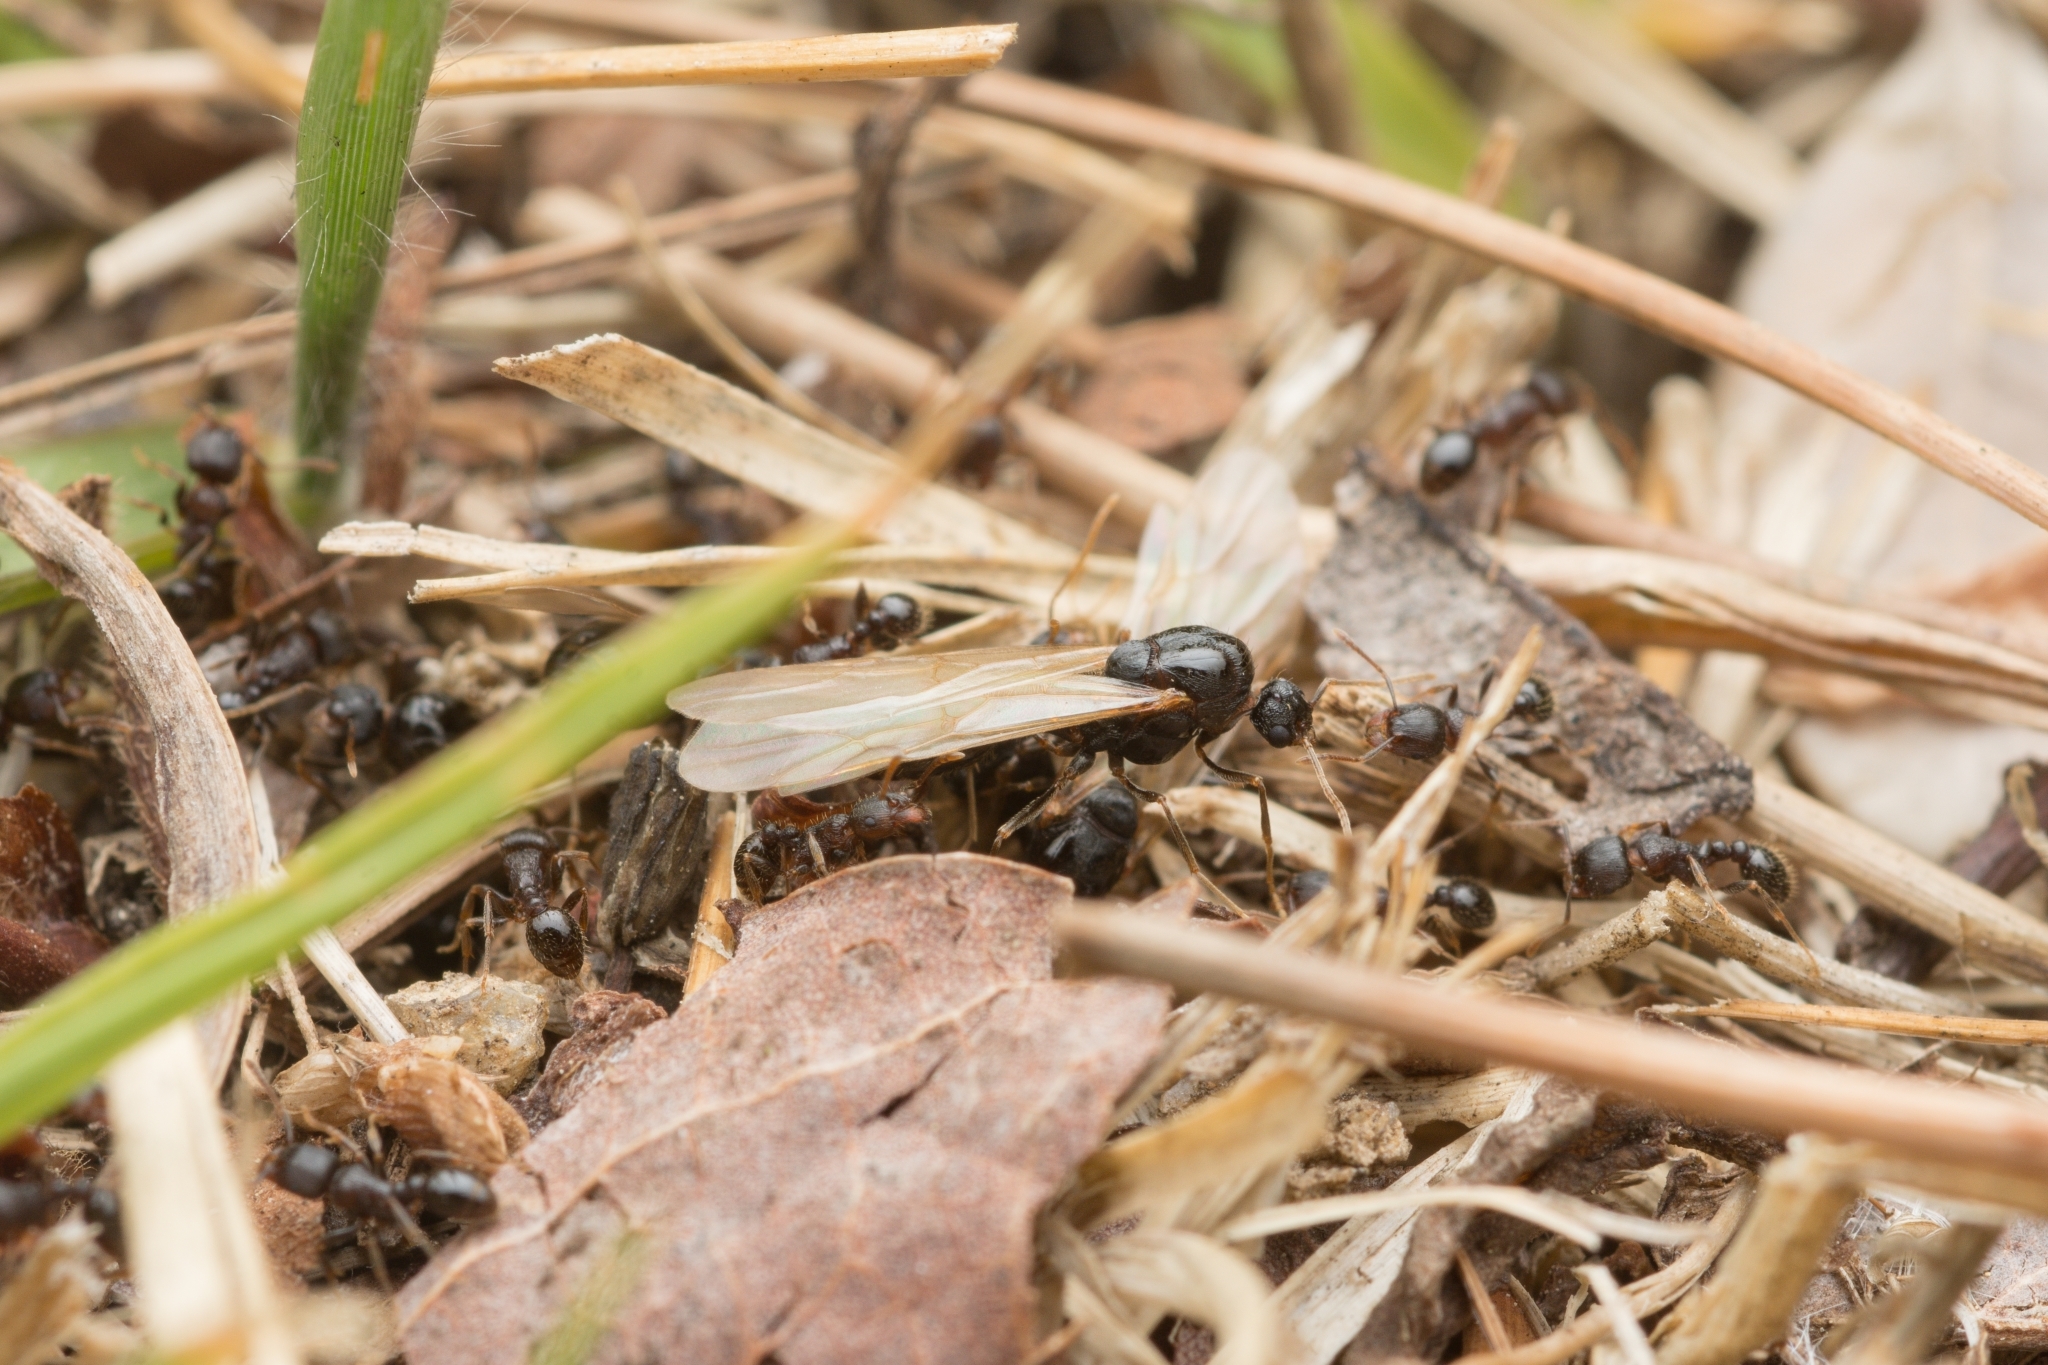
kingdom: Animalia
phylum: Arthropoda
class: Insecta
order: Hymenoptera
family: Formicidae
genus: Tetramorium
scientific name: Tetramorium tsushimae
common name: Ant
